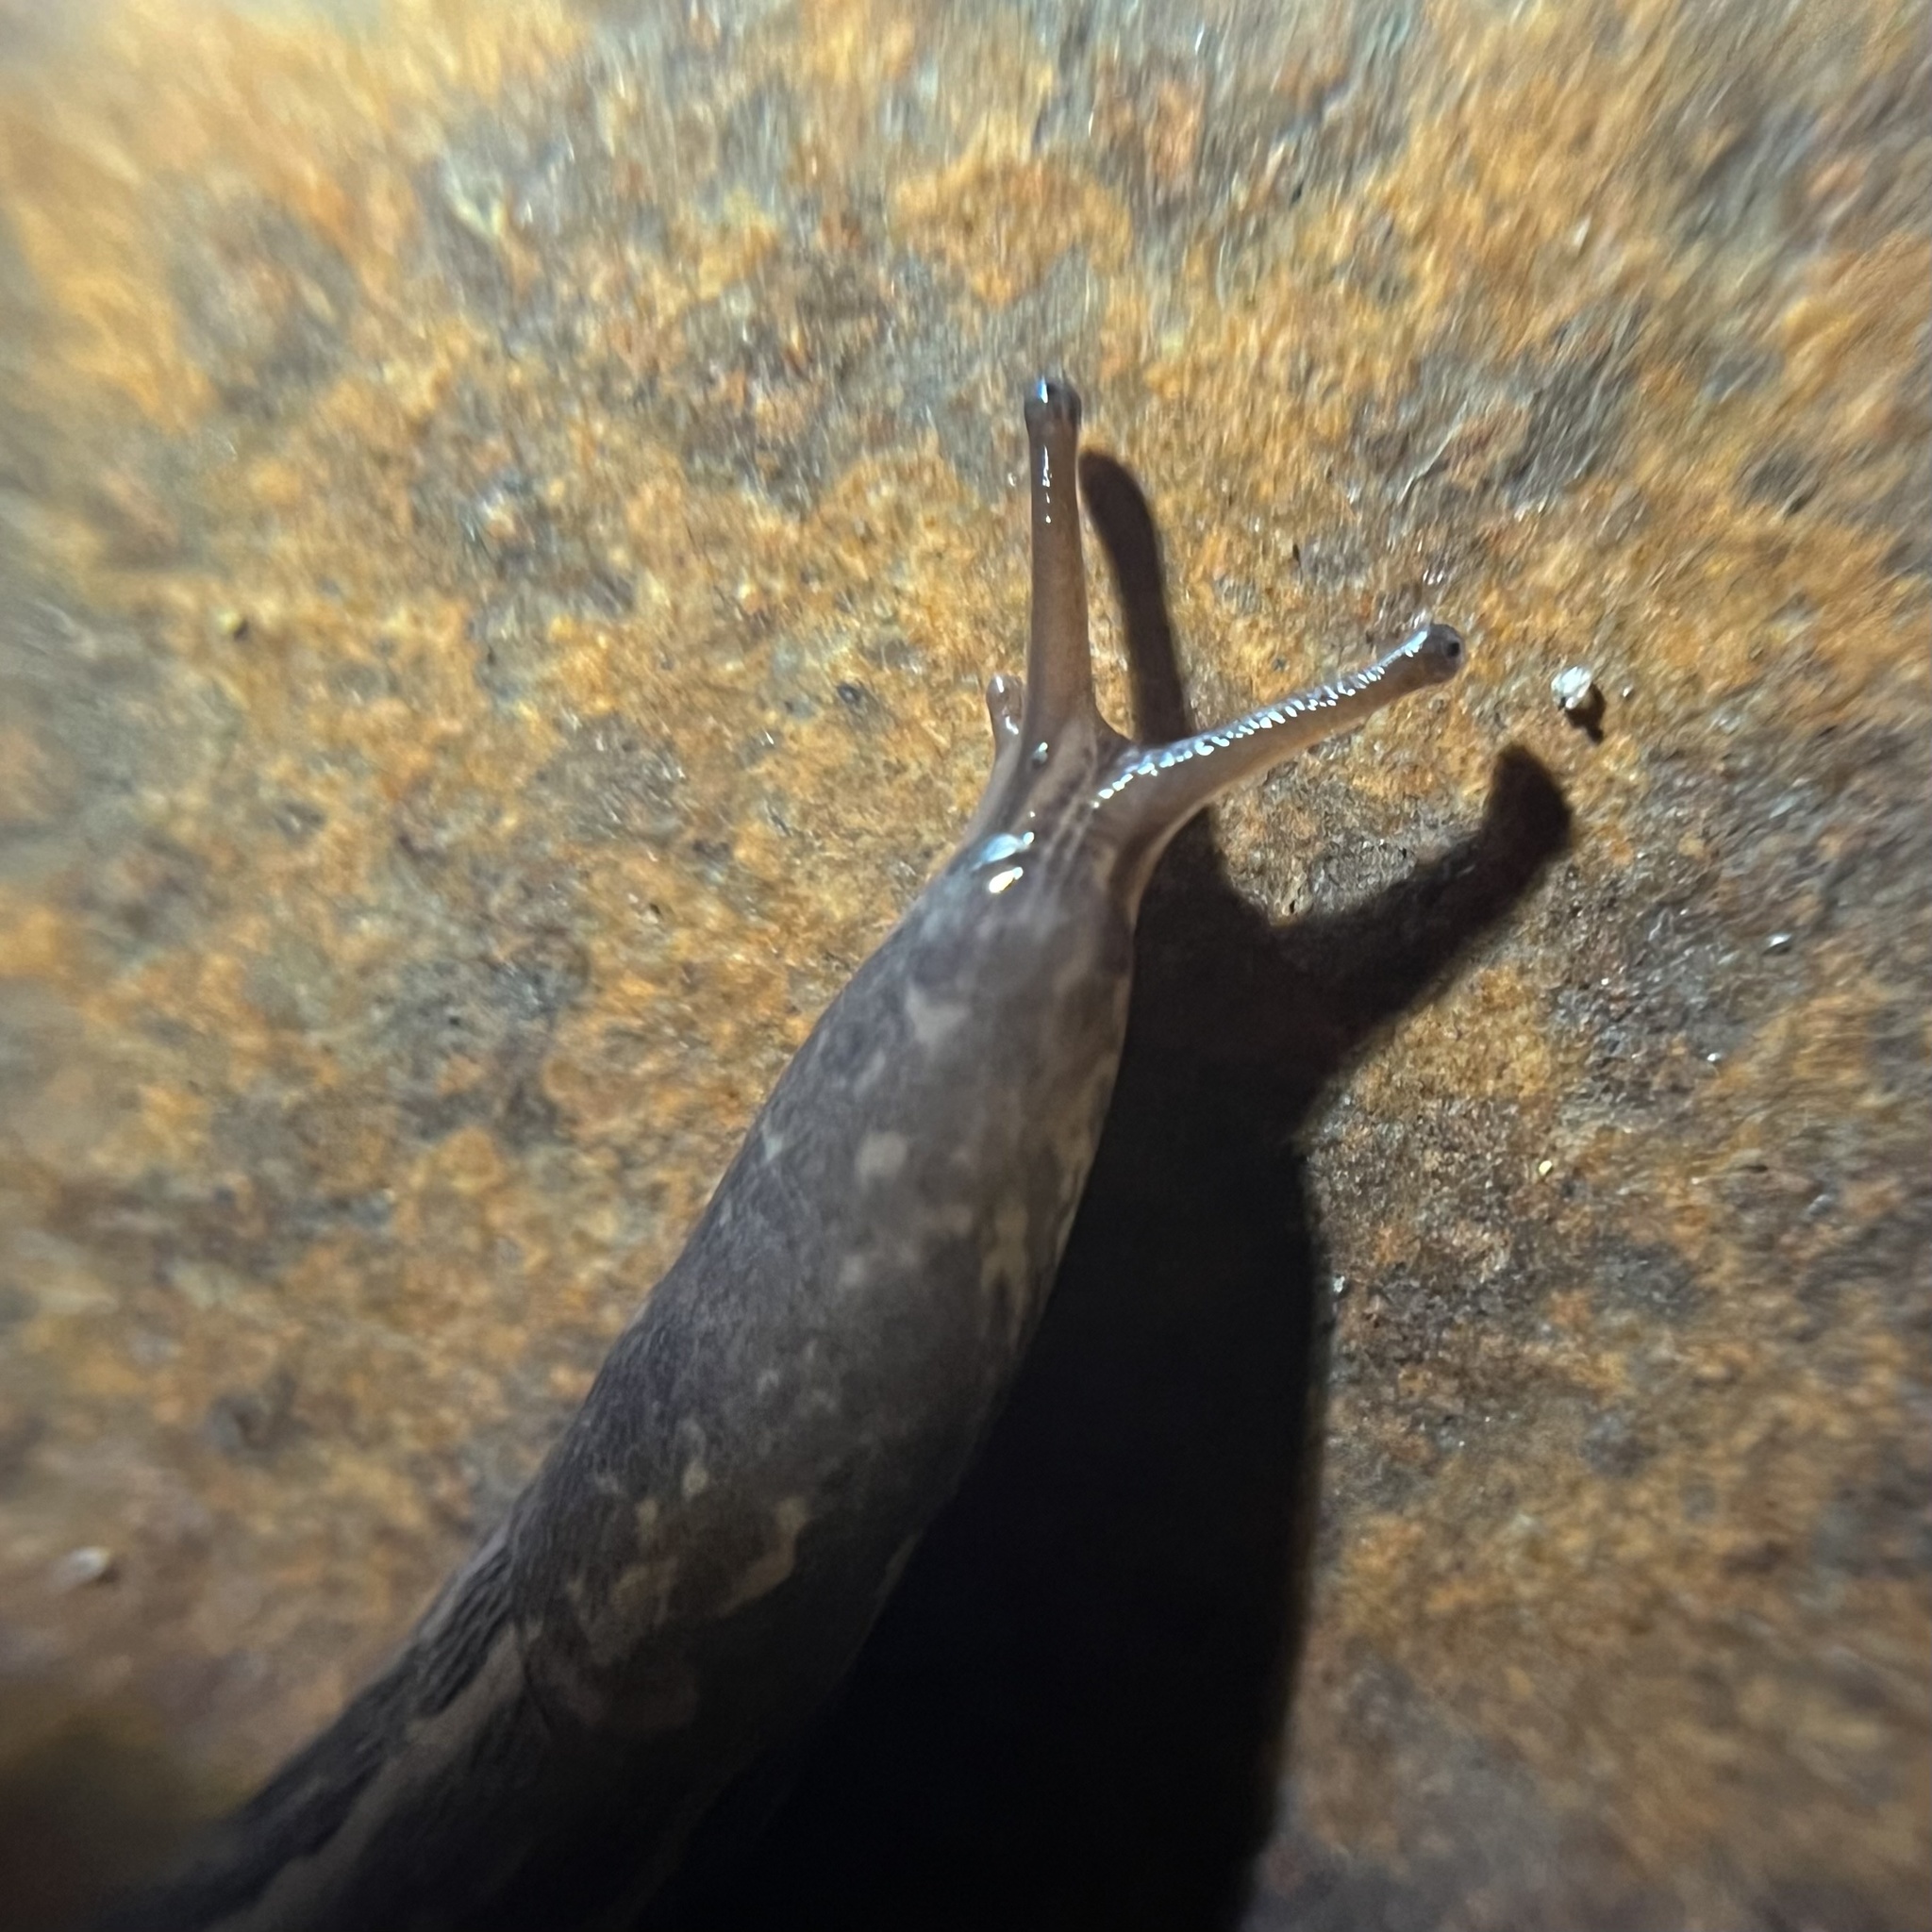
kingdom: Animalia
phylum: Mollusca
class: Gastropoda
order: Stylommatophora
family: Limacidae
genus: Limax
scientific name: Limax maximus
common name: Great grey slug
